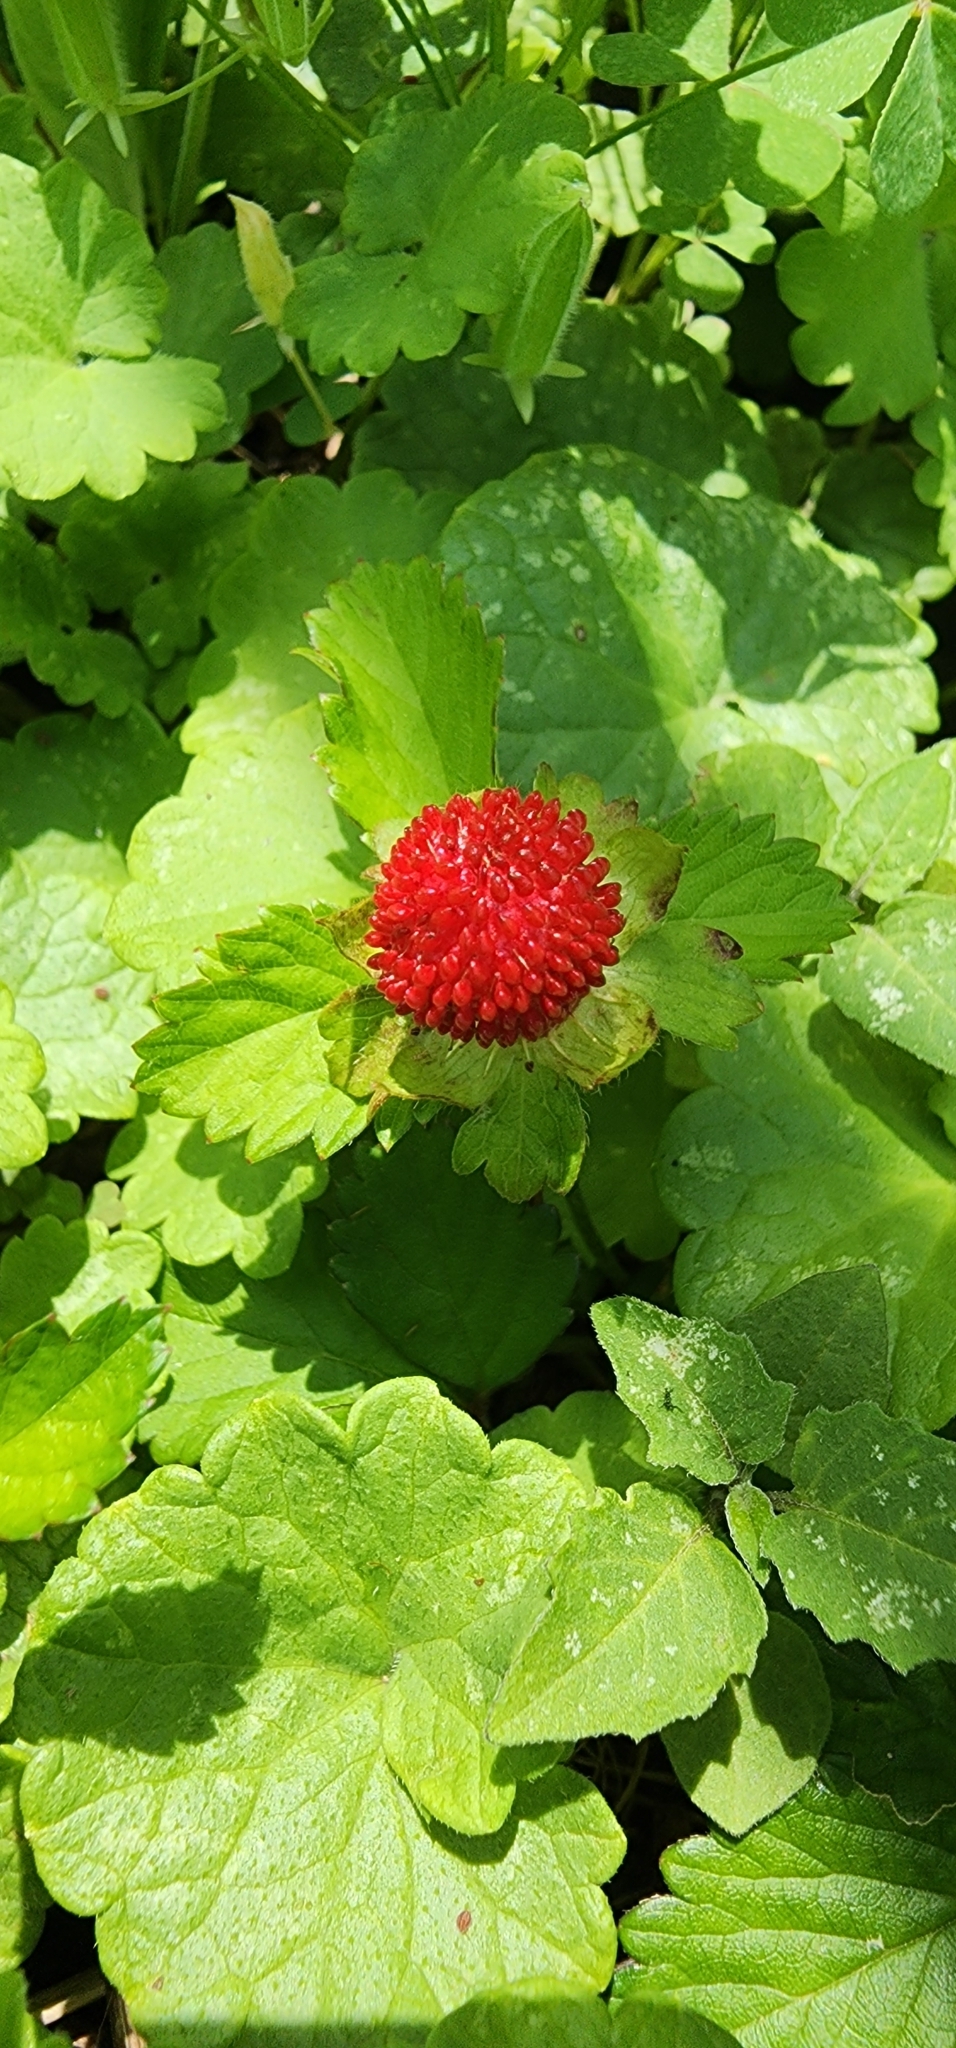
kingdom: Plantae
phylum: Tracheophyta
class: Magnoliopsida
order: Rosales
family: Rosaceae
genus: Potentilla
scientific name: Potentilla indica
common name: Yellow-flowered strawberry
